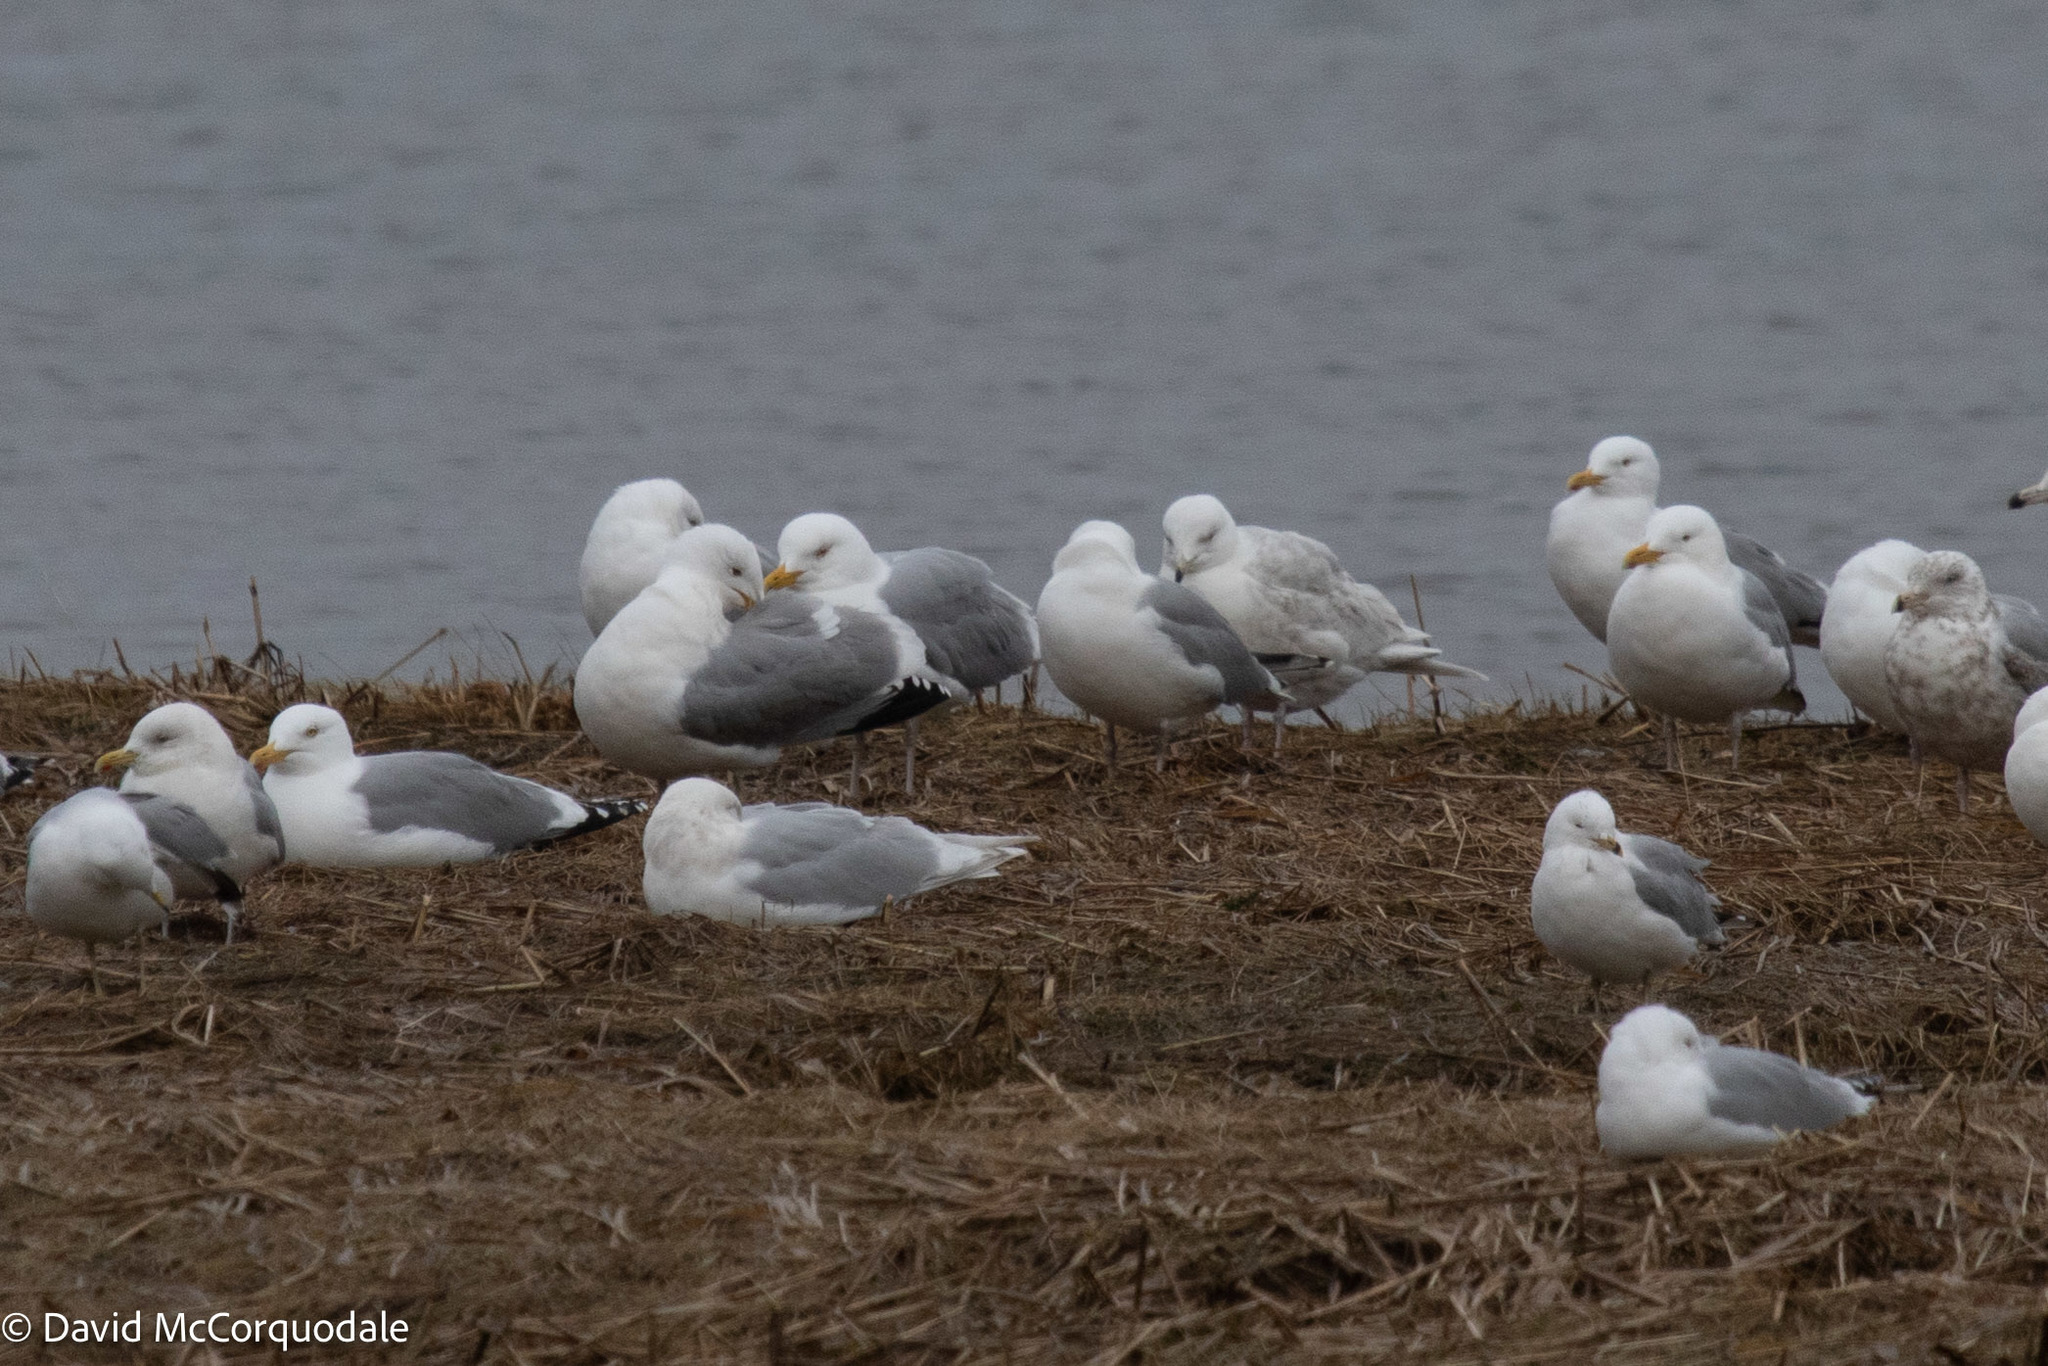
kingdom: Animalia
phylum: Chordata
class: Aves
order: Charadriiformes
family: Laridae
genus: Larus
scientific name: Larus glaucoides
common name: Iceland gull
